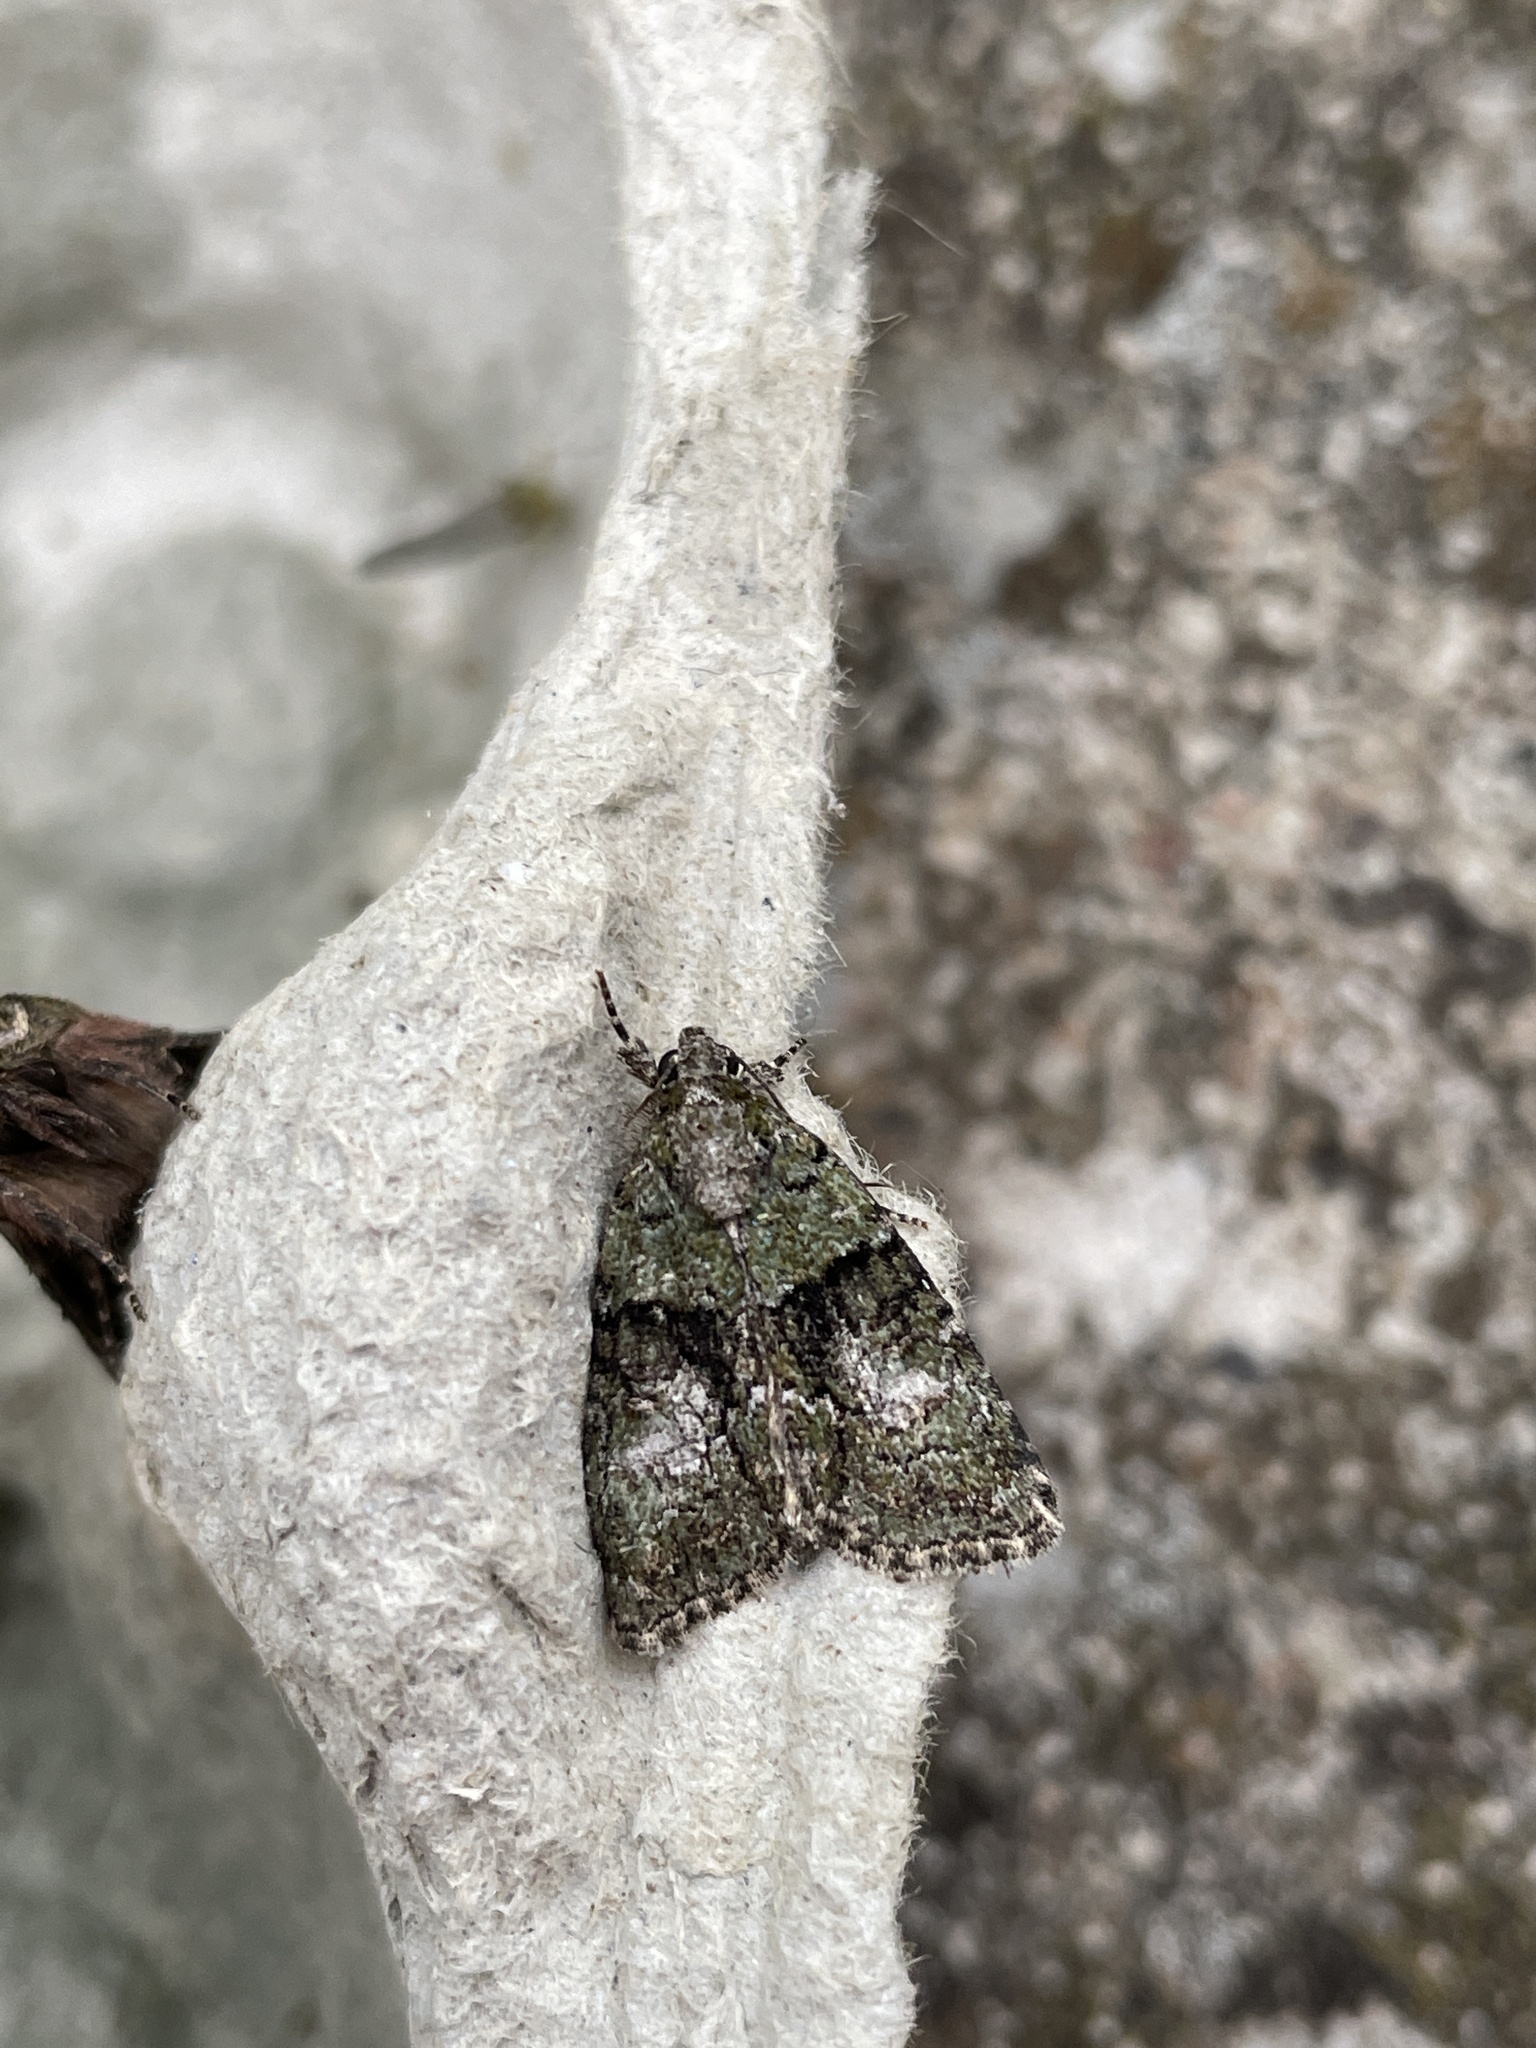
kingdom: Animalia
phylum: Arthropoda
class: Insecta
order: Lepidoptera
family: Noctuidae
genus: Cryphia
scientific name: Cryphia algae
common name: Tree-lichen beauty
